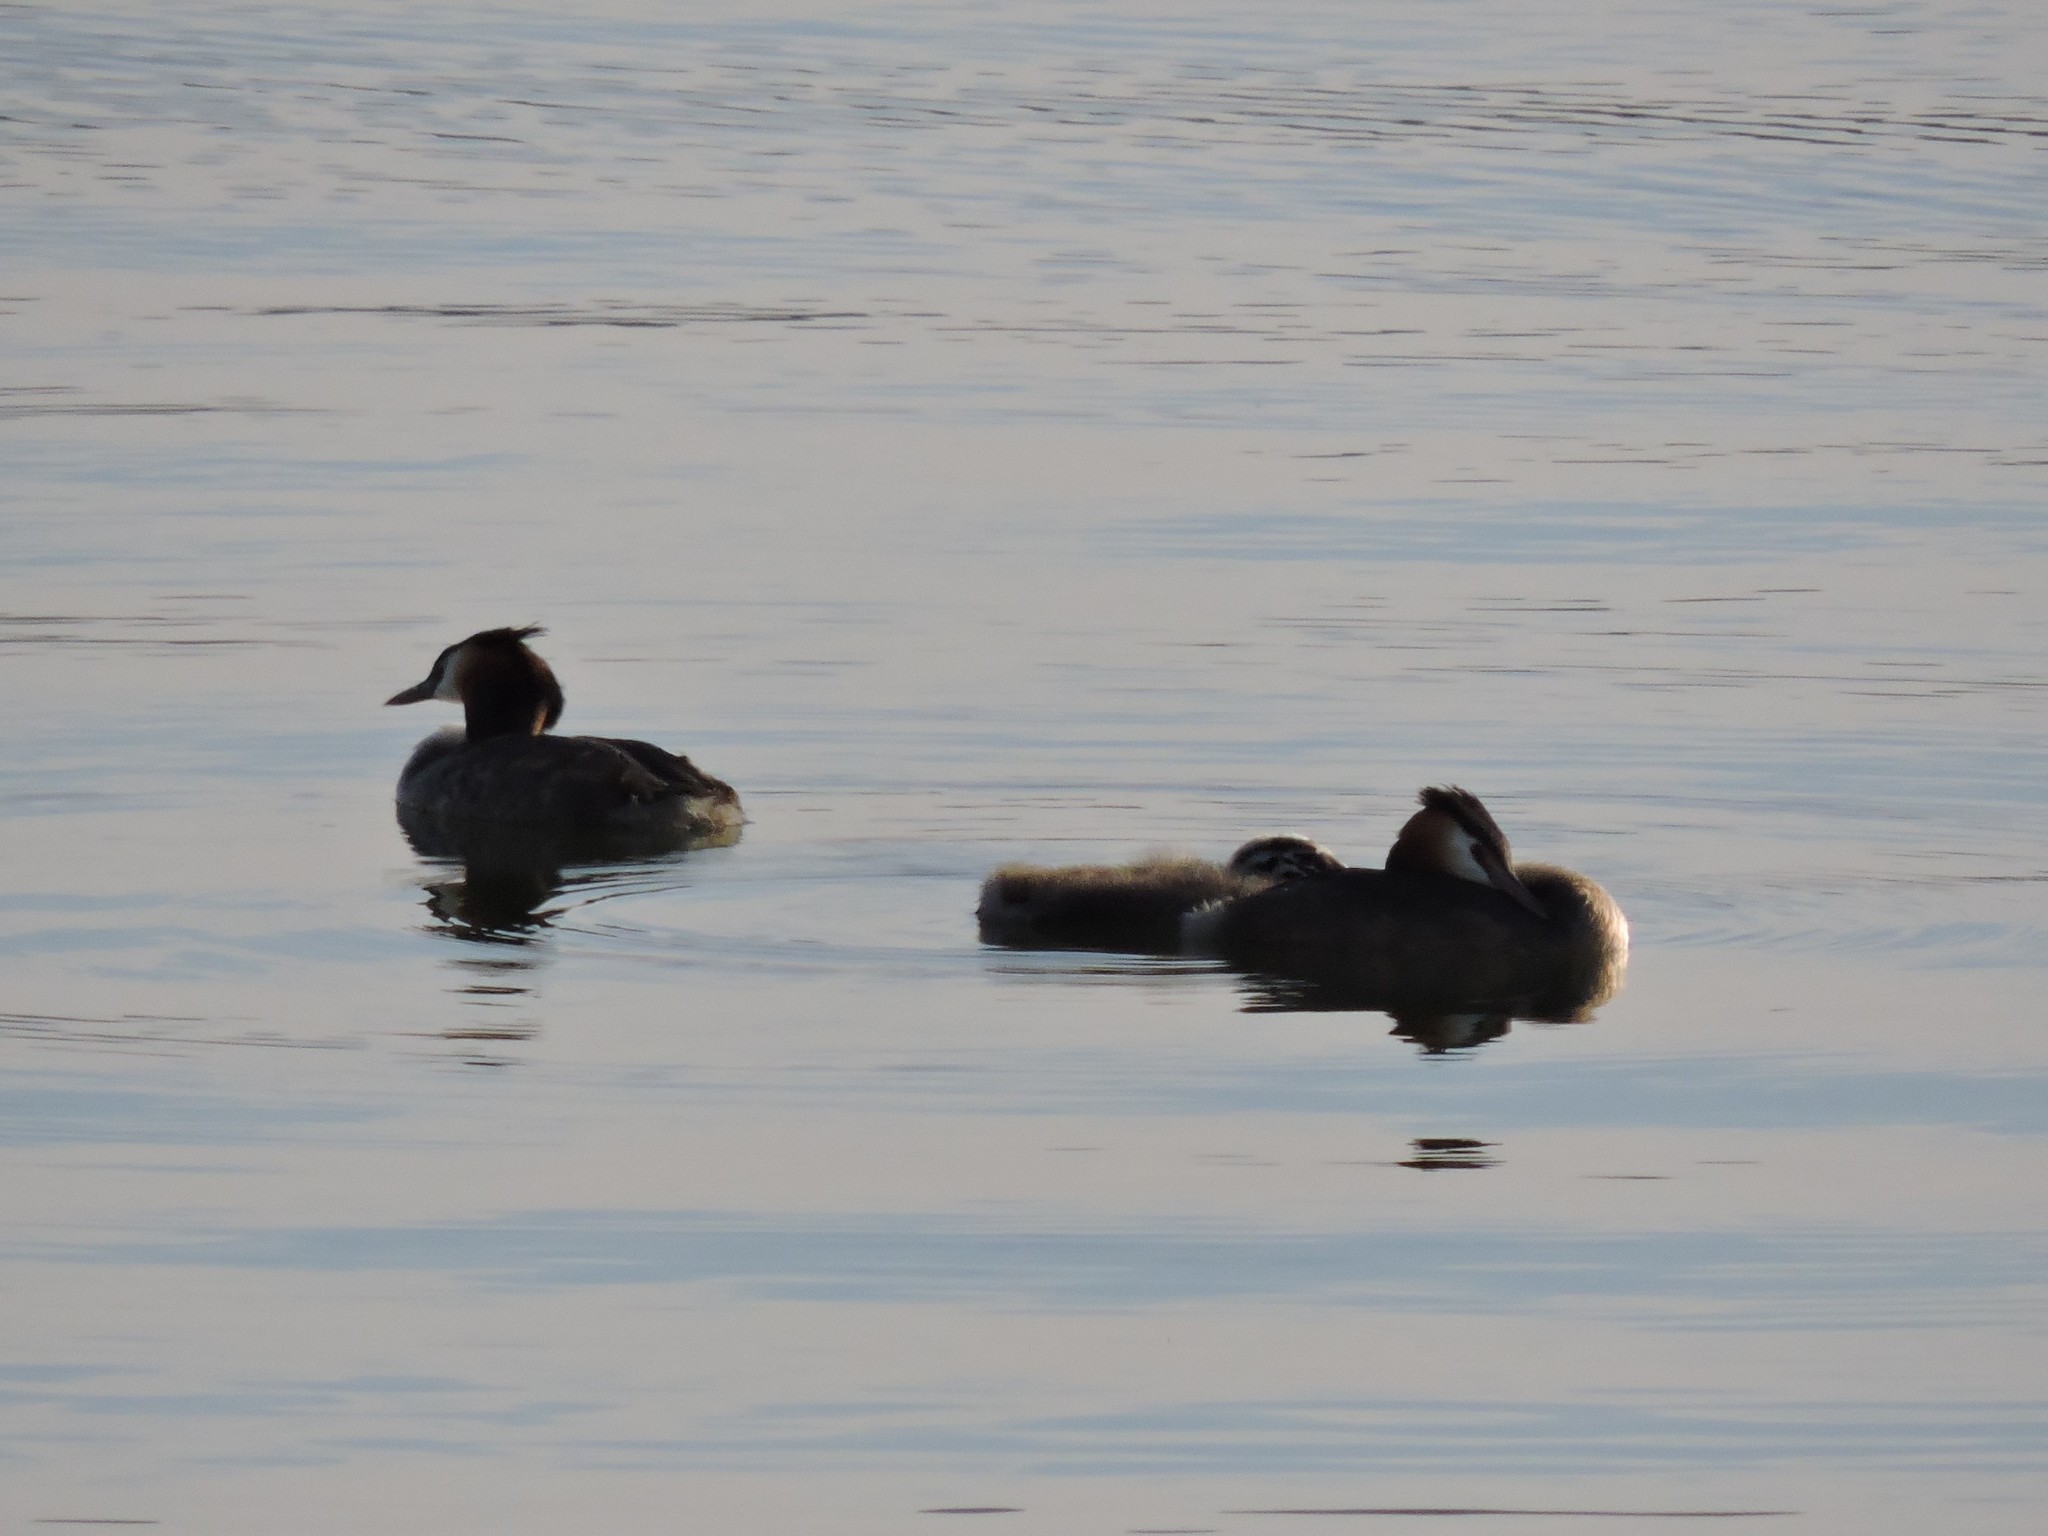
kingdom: Animalia
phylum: Chordata
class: Aves
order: Podicipediformes
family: Podicipedidae
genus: Podiceps
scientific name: Podiceps cristatus
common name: Great crested grebe
